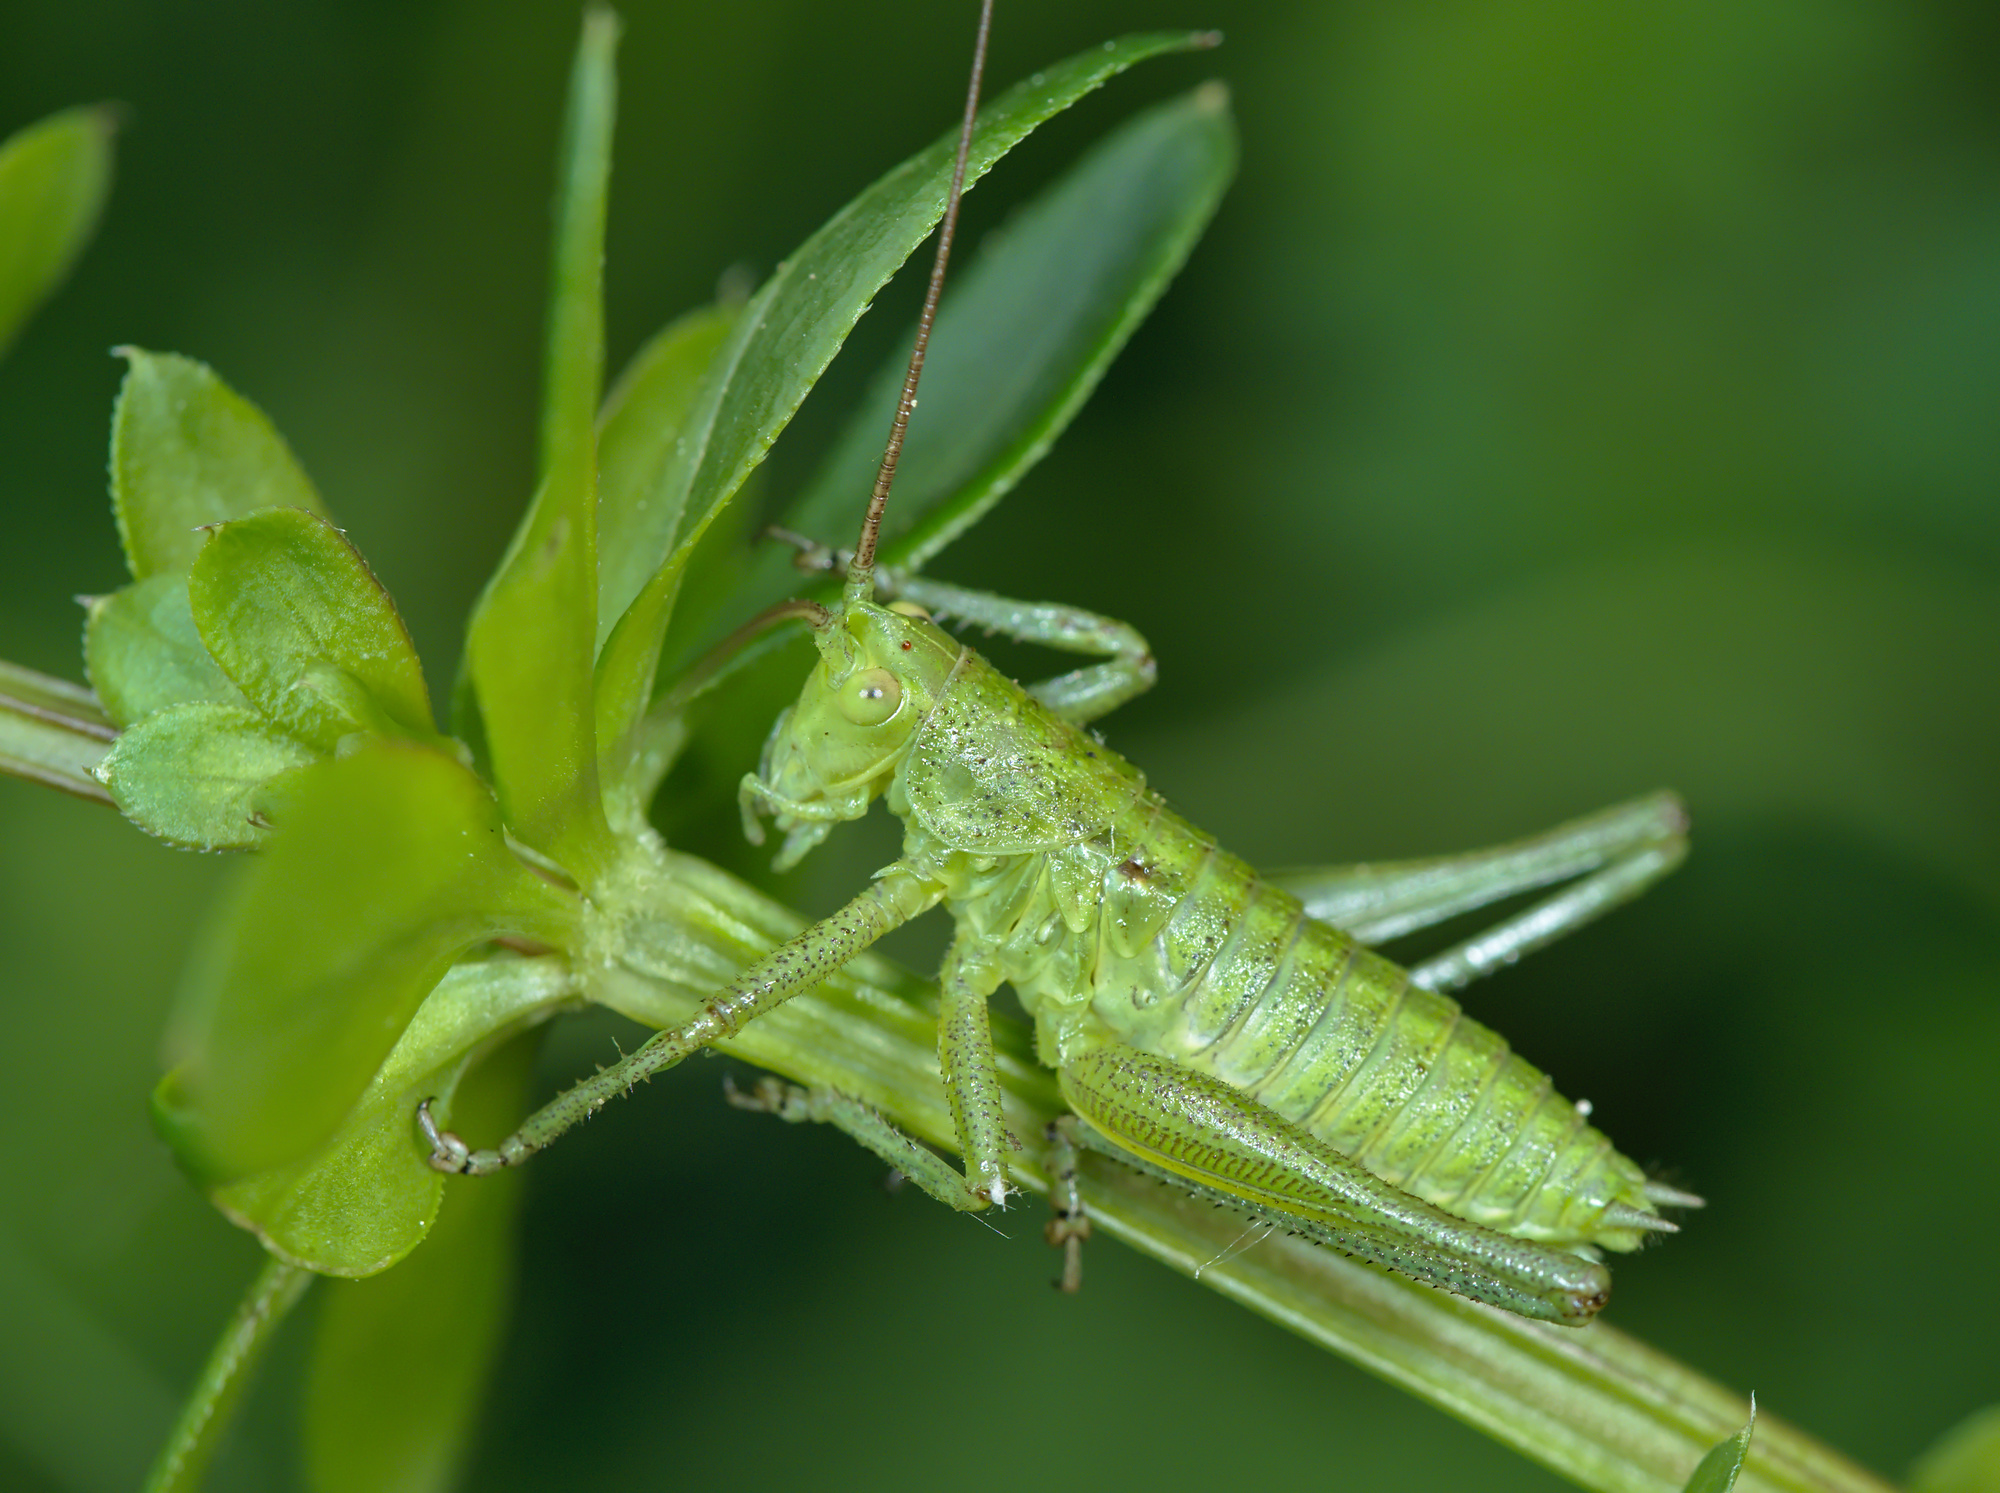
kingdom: Animalia
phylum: Arthropoda
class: Insecta
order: Orthoptera
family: Tettigoniidae
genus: Tettigonia
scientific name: Tettigonia viridissima
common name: Great green bush-cricket
